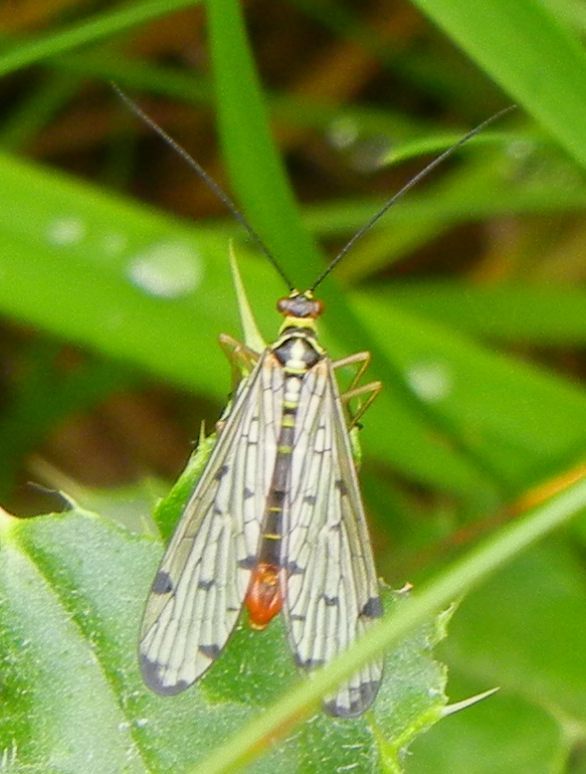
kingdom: Animalia
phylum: Arthropoda
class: Insecta
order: Mecoptera
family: Panorpidae
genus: Panorpa
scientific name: Panorpa germanica
